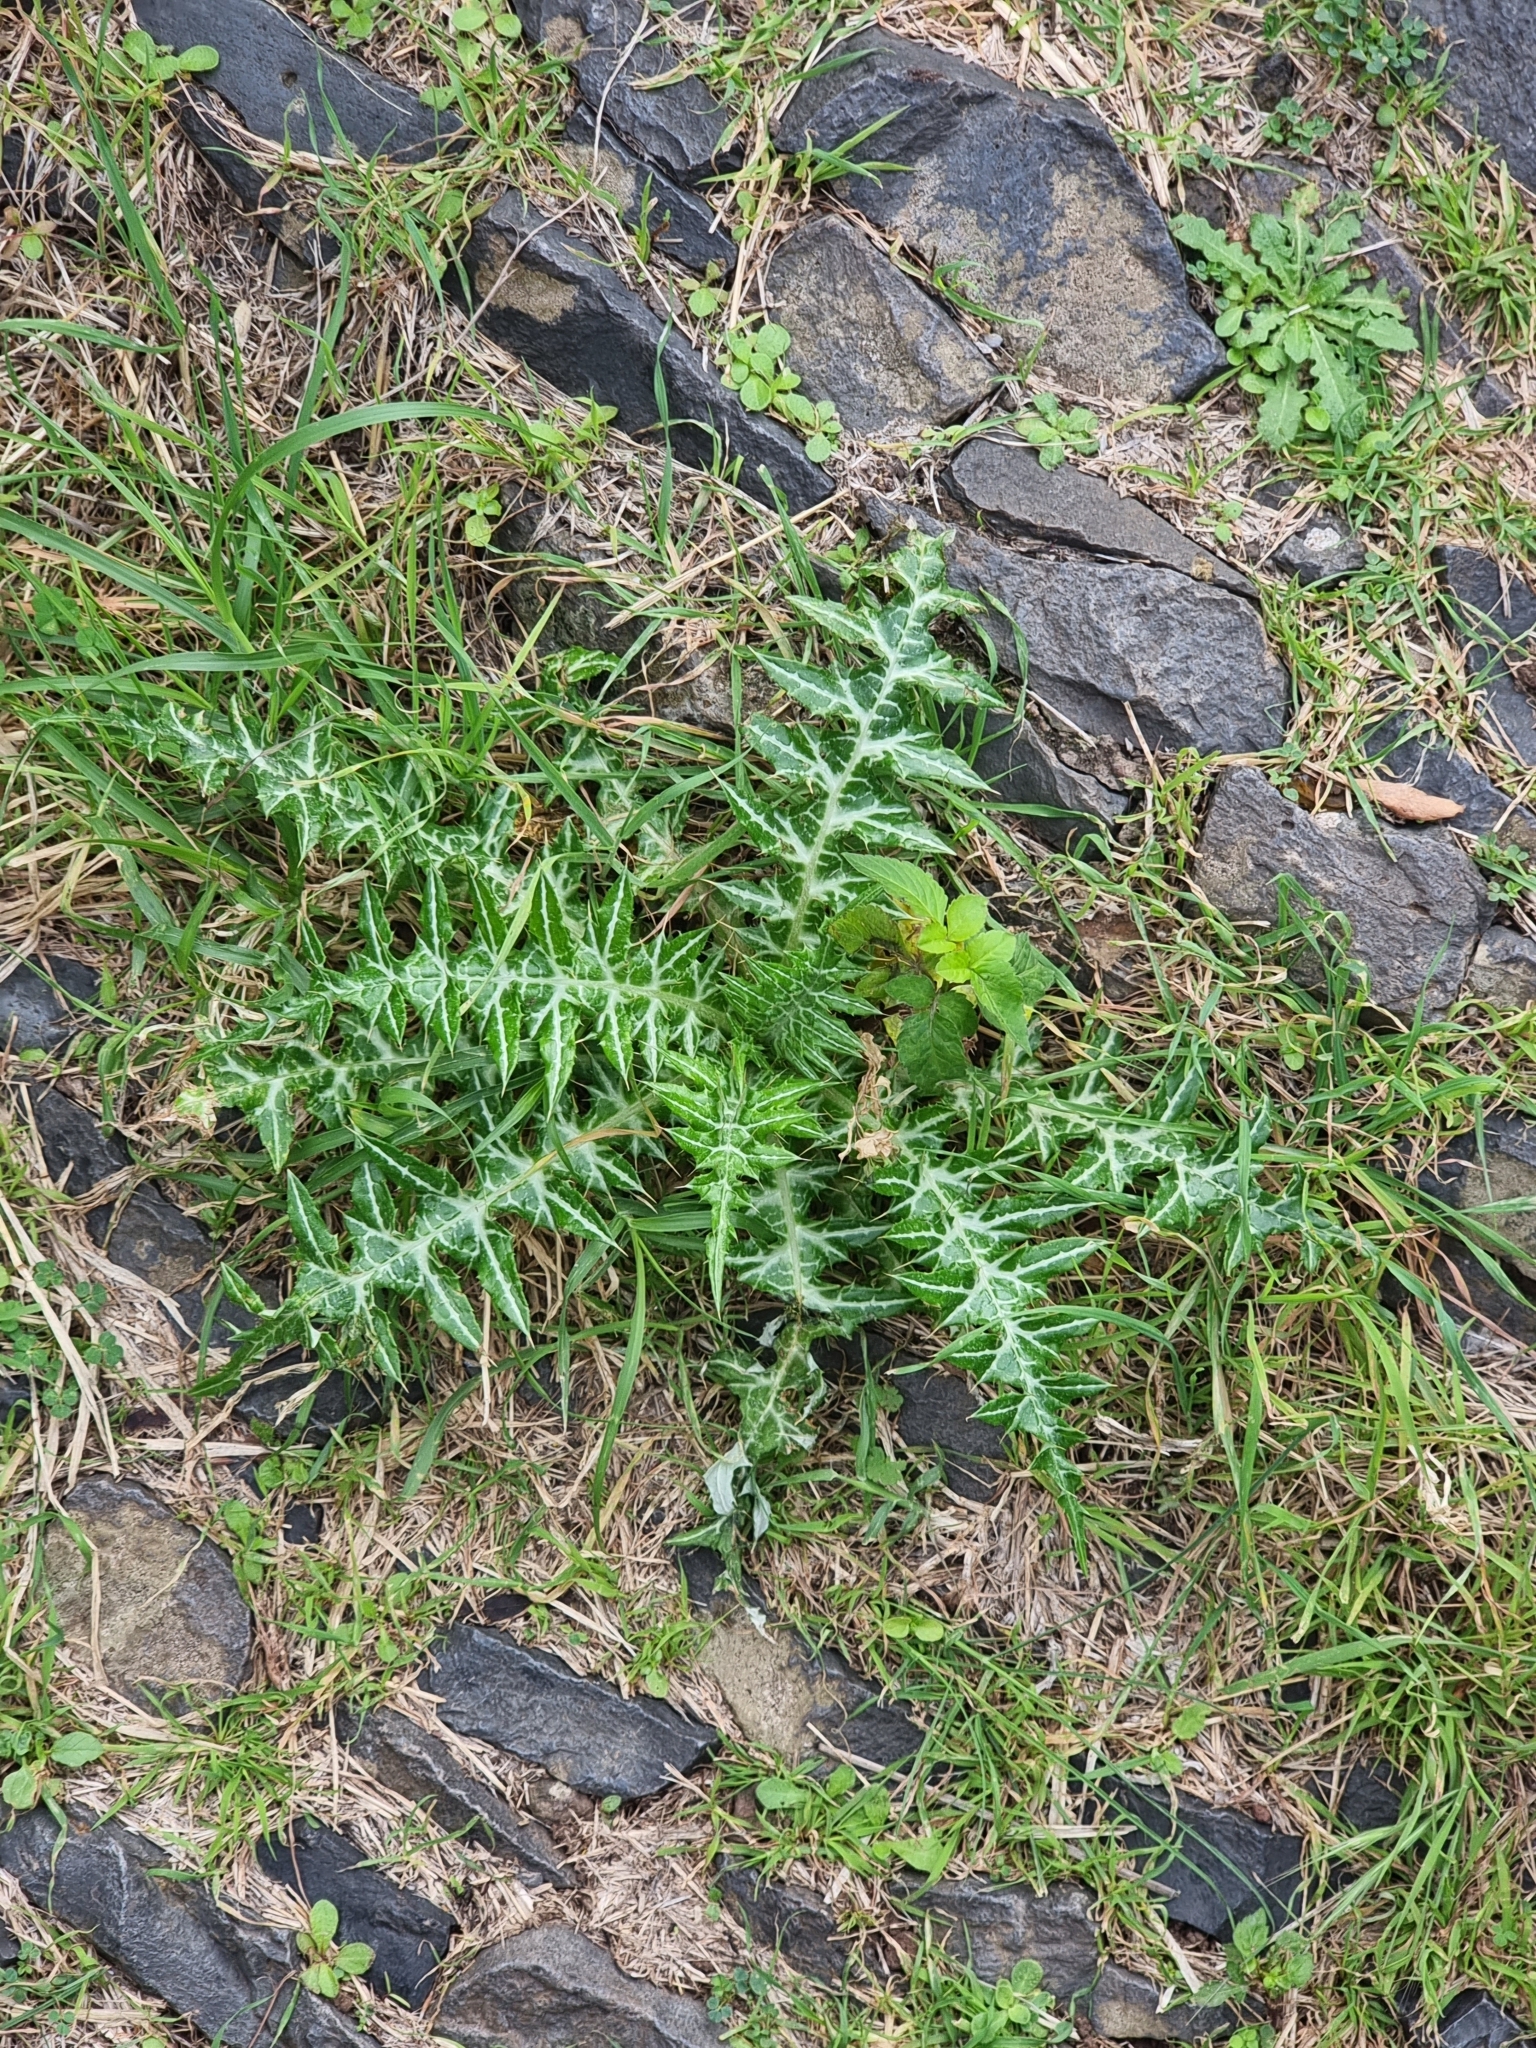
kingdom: Plantae
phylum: Tracheophyta
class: Magnoliopsida
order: Asterales
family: Asteraceae
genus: Galactites
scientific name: Galactites tomentosa
